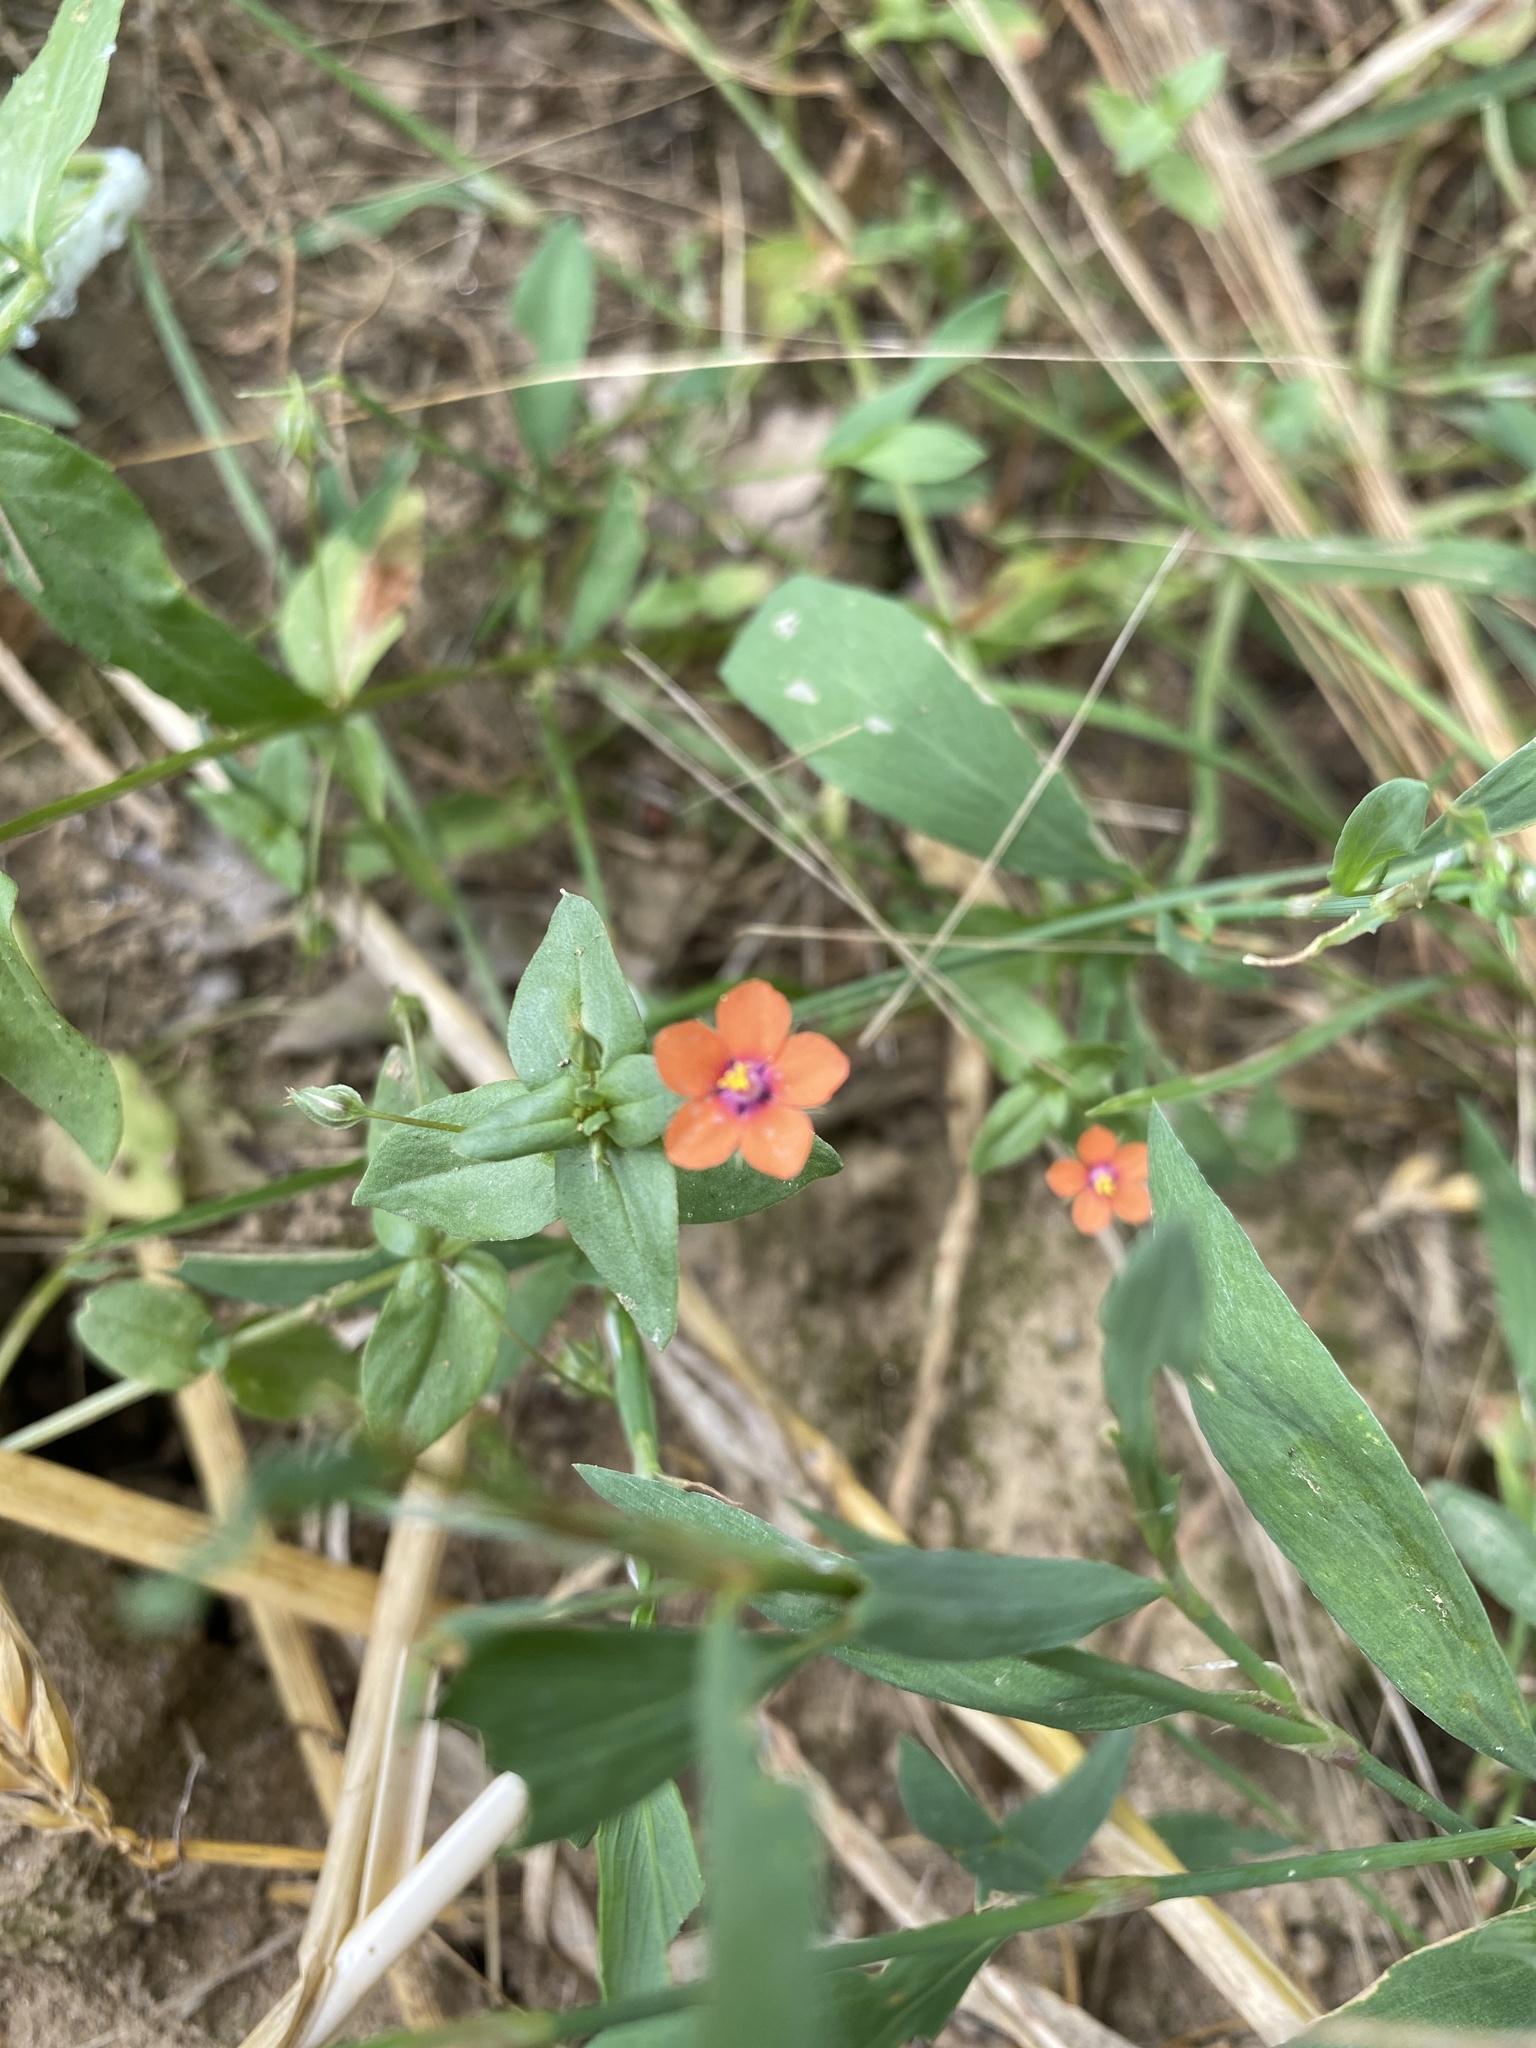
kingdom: Plantae
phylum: Tracheophyta
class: Magnoliopsida
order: Ericales
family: Primulaceae
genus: Lysimachia
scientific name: Lysimachia arvensis
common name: Scarlet pimpernel
